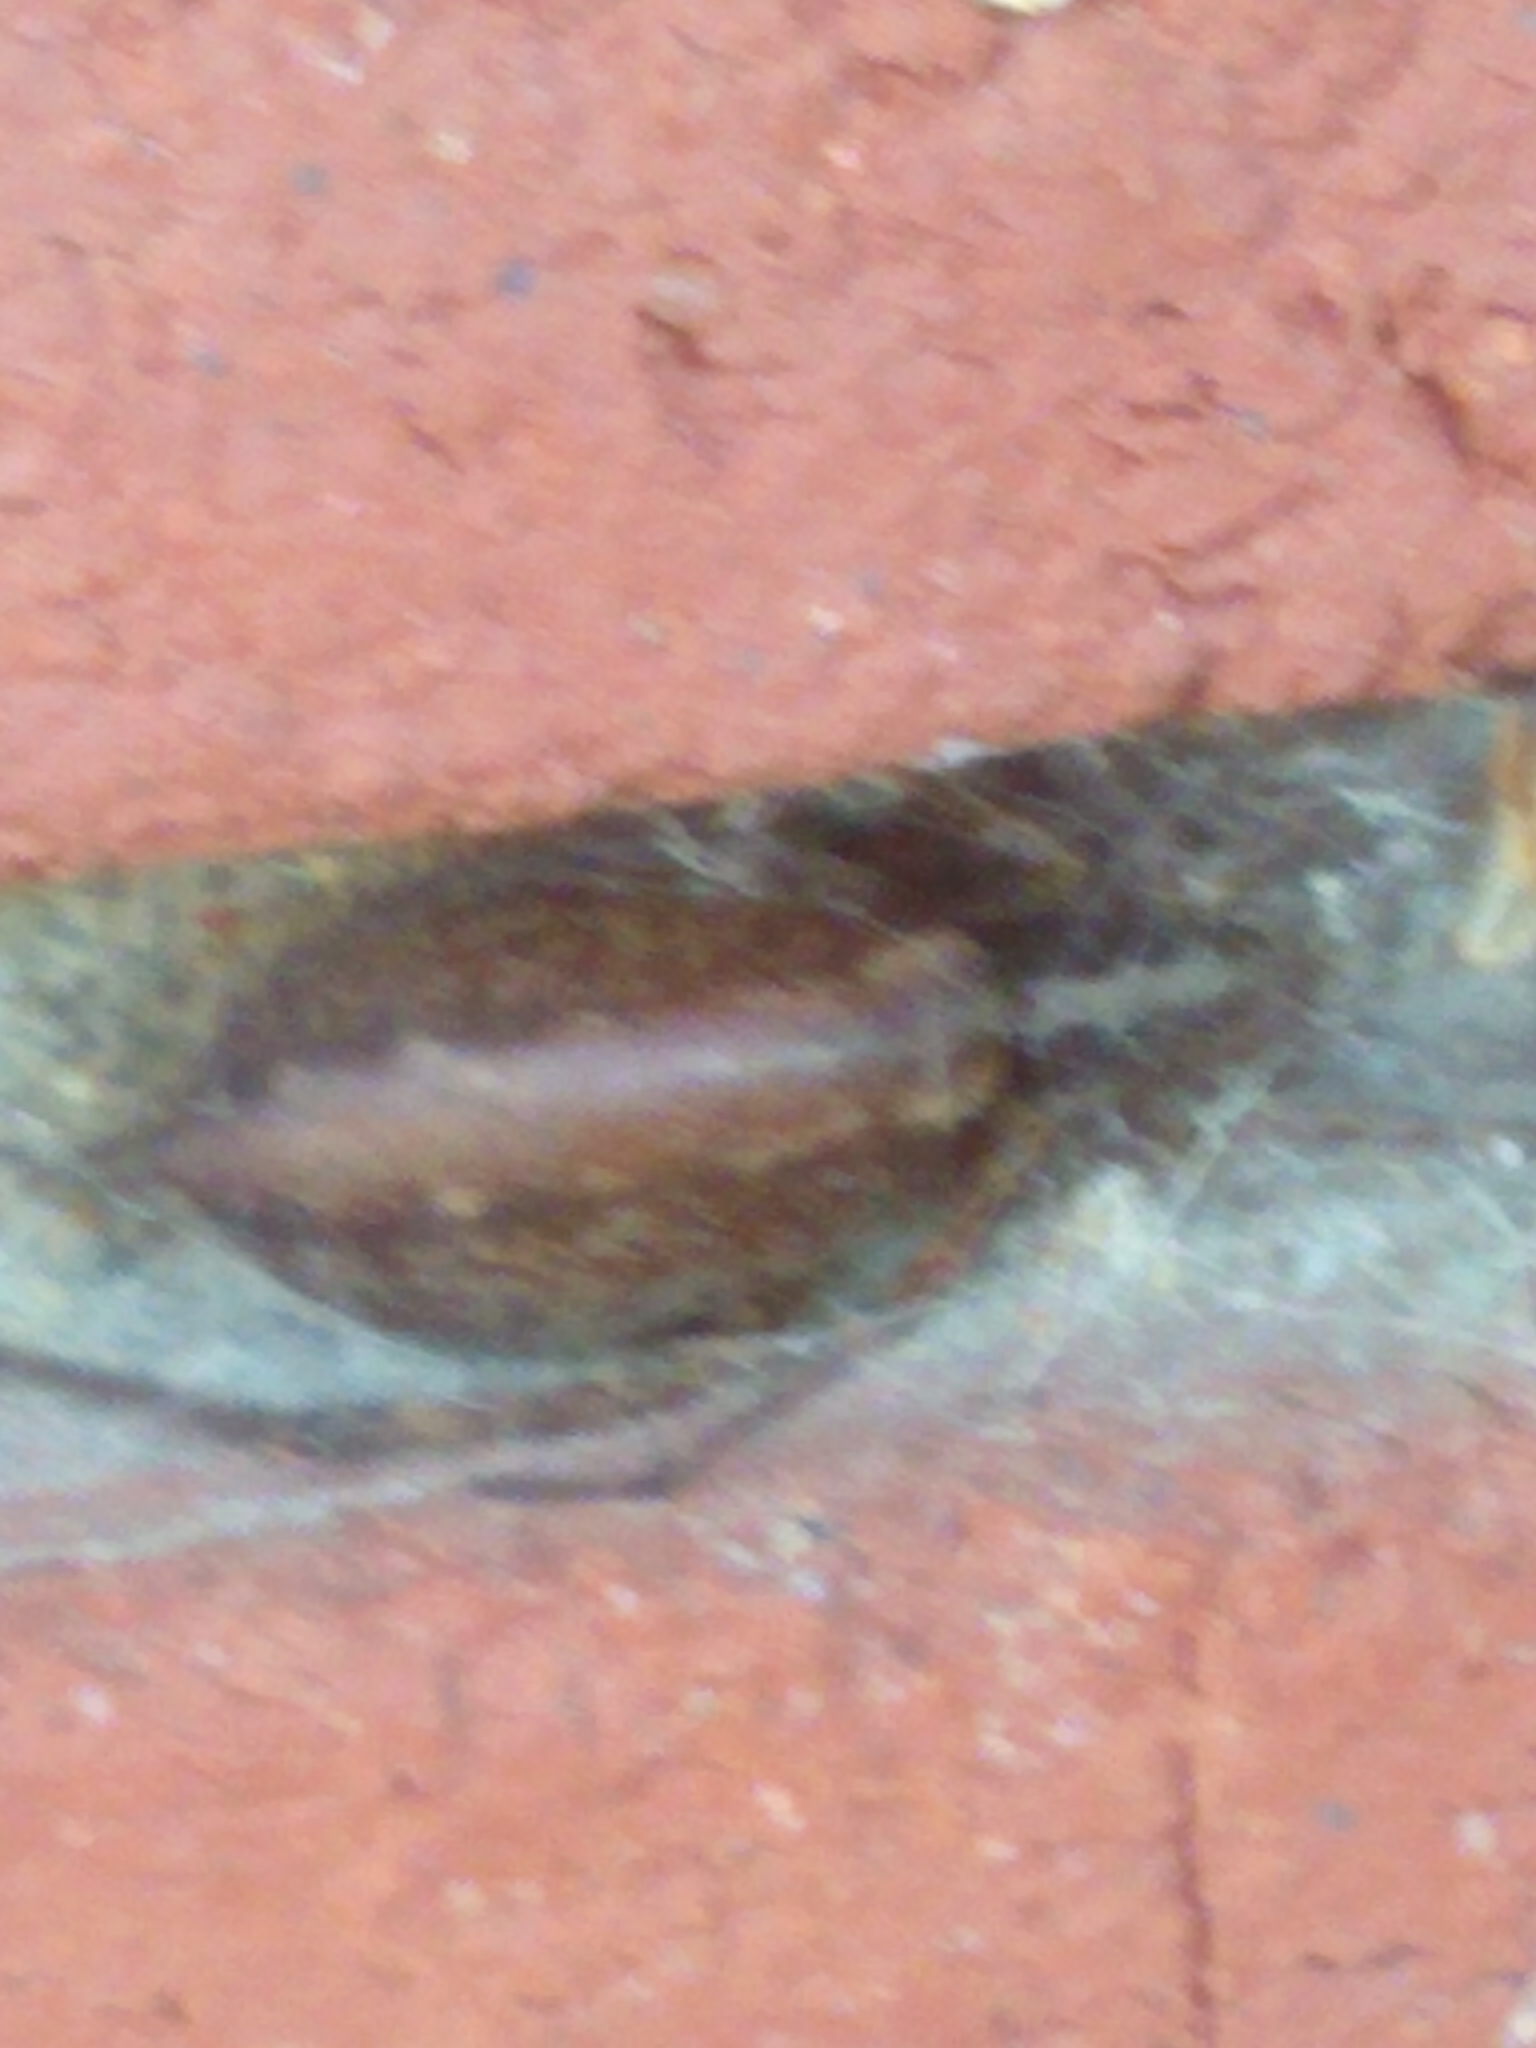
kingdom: Animalia
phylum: Arthropoda
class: Arachnida
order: Araneae
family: Agelenidae
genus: Agelenopsis
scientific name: Agelenopsis
